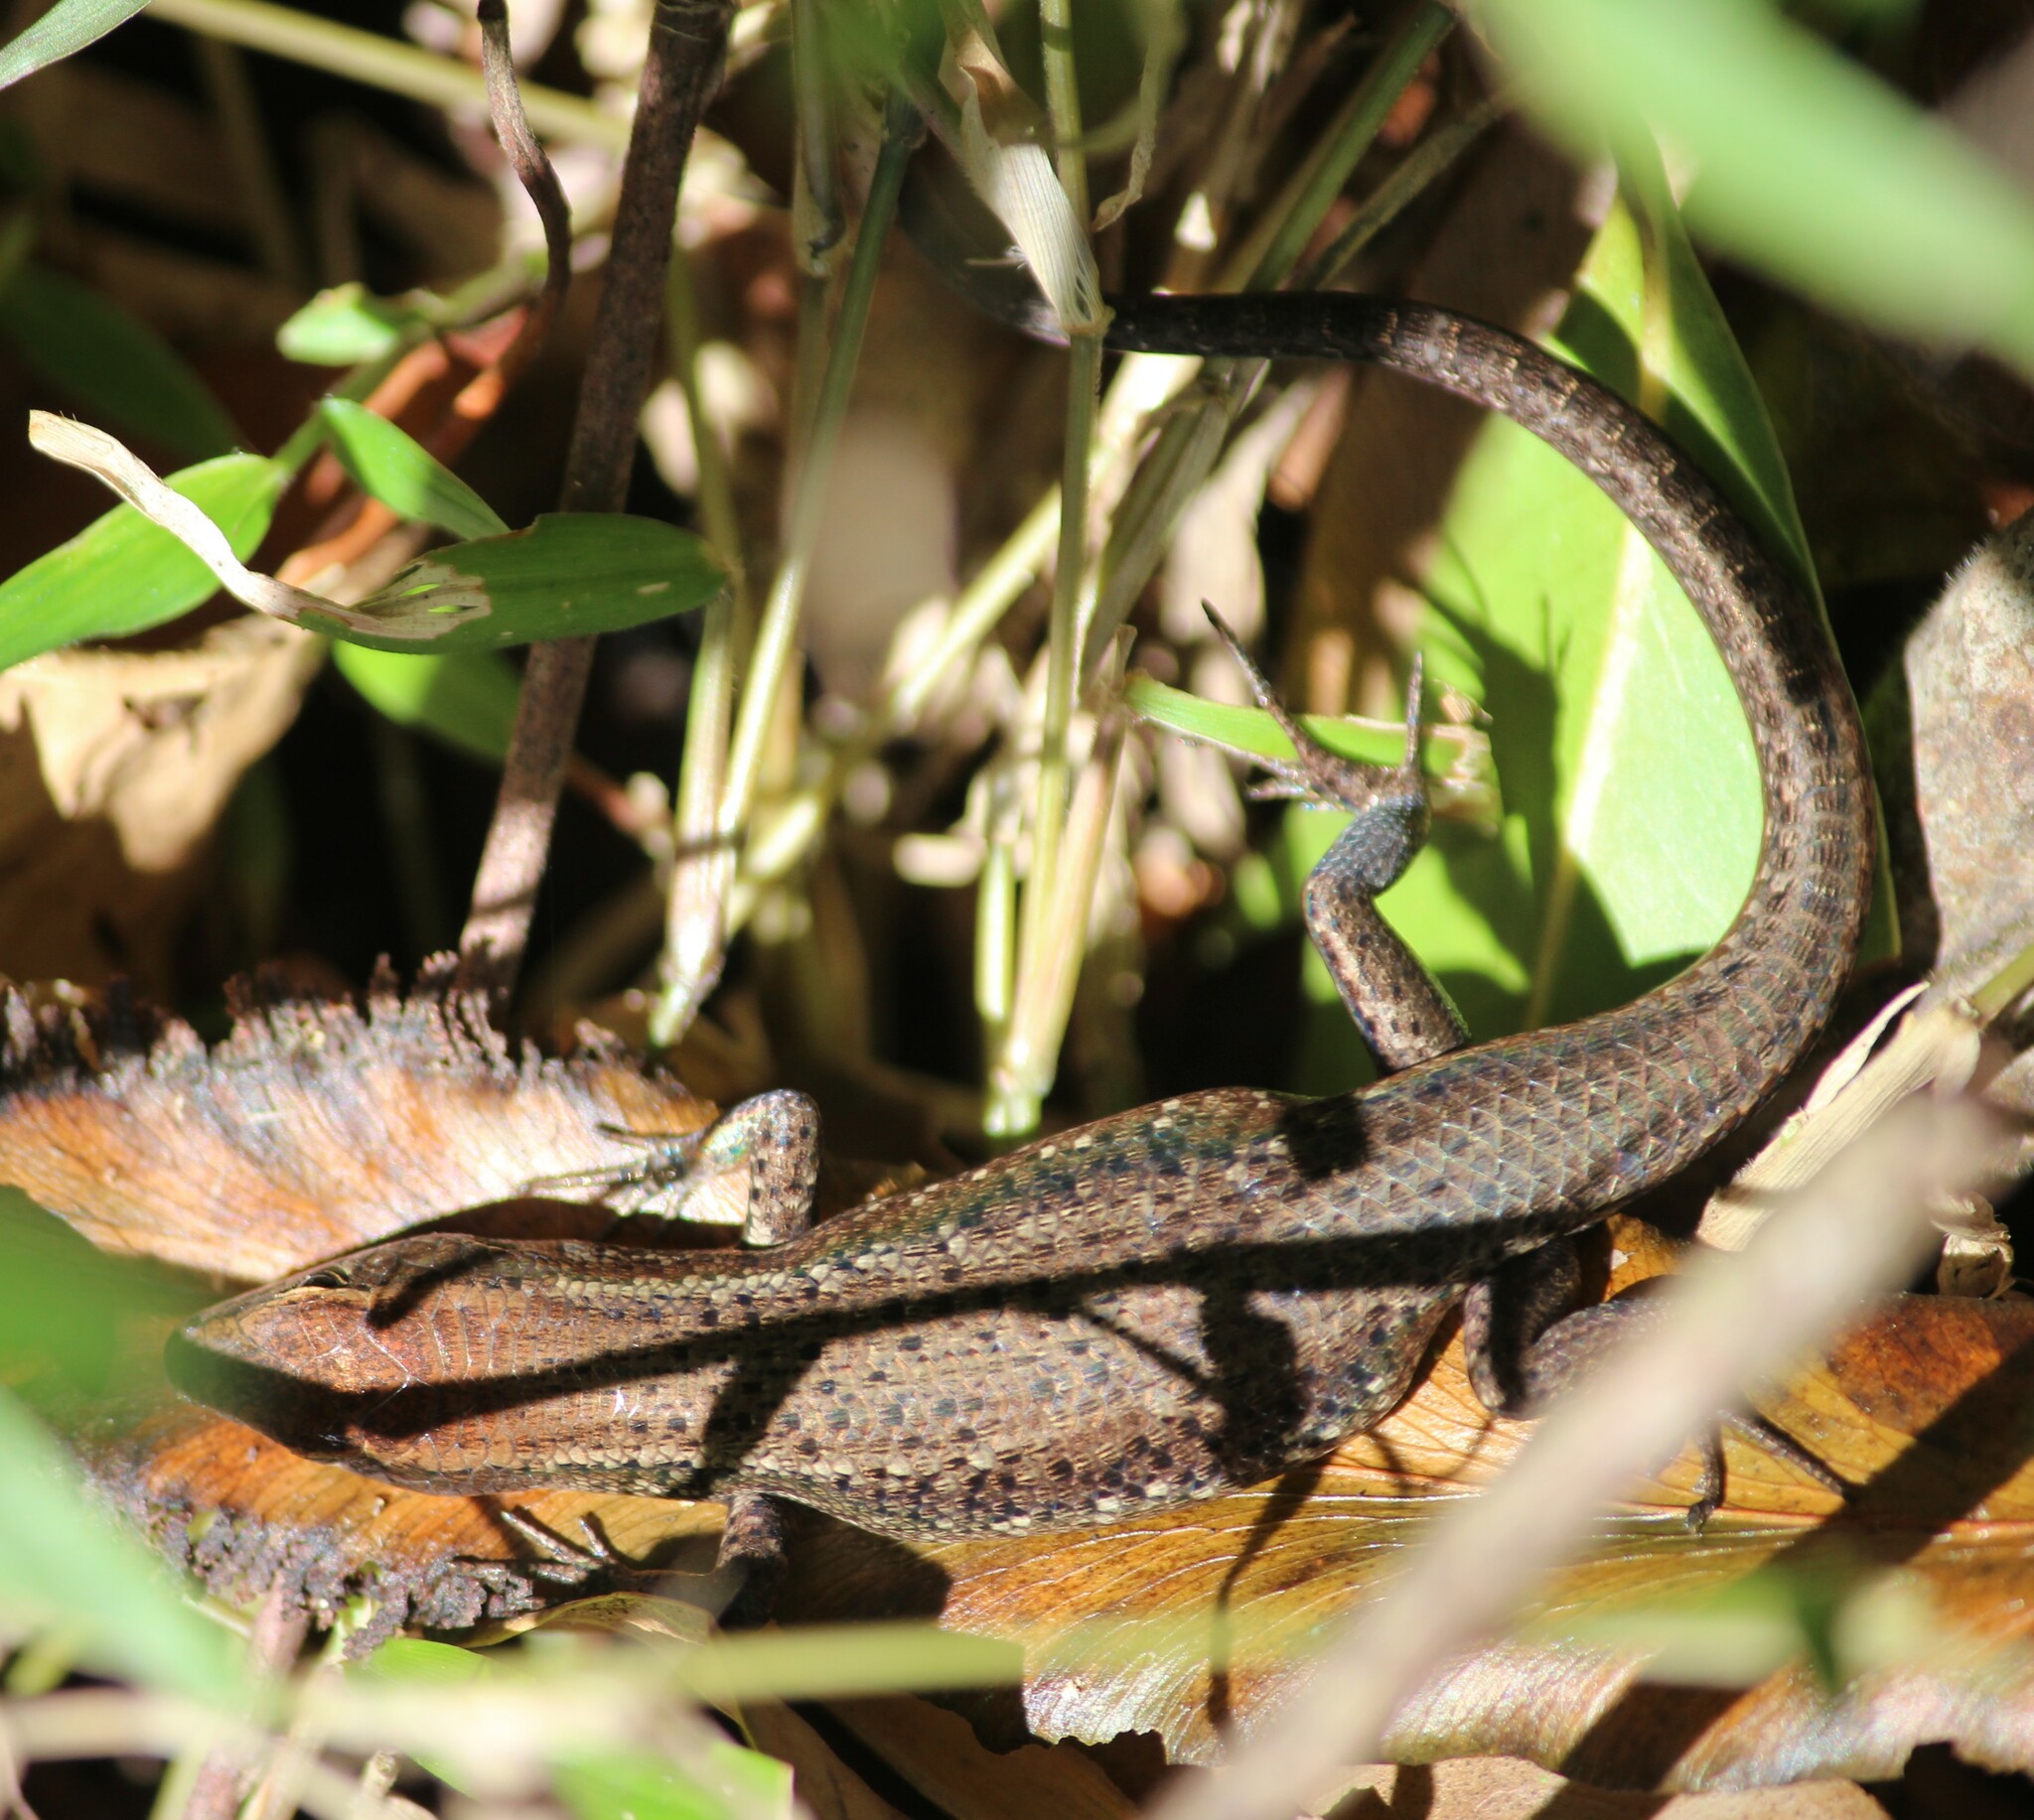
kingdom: Animalia
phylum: Chordata
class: Squamata
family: Scincidae
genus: Carlia
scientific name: Carlia crypta
